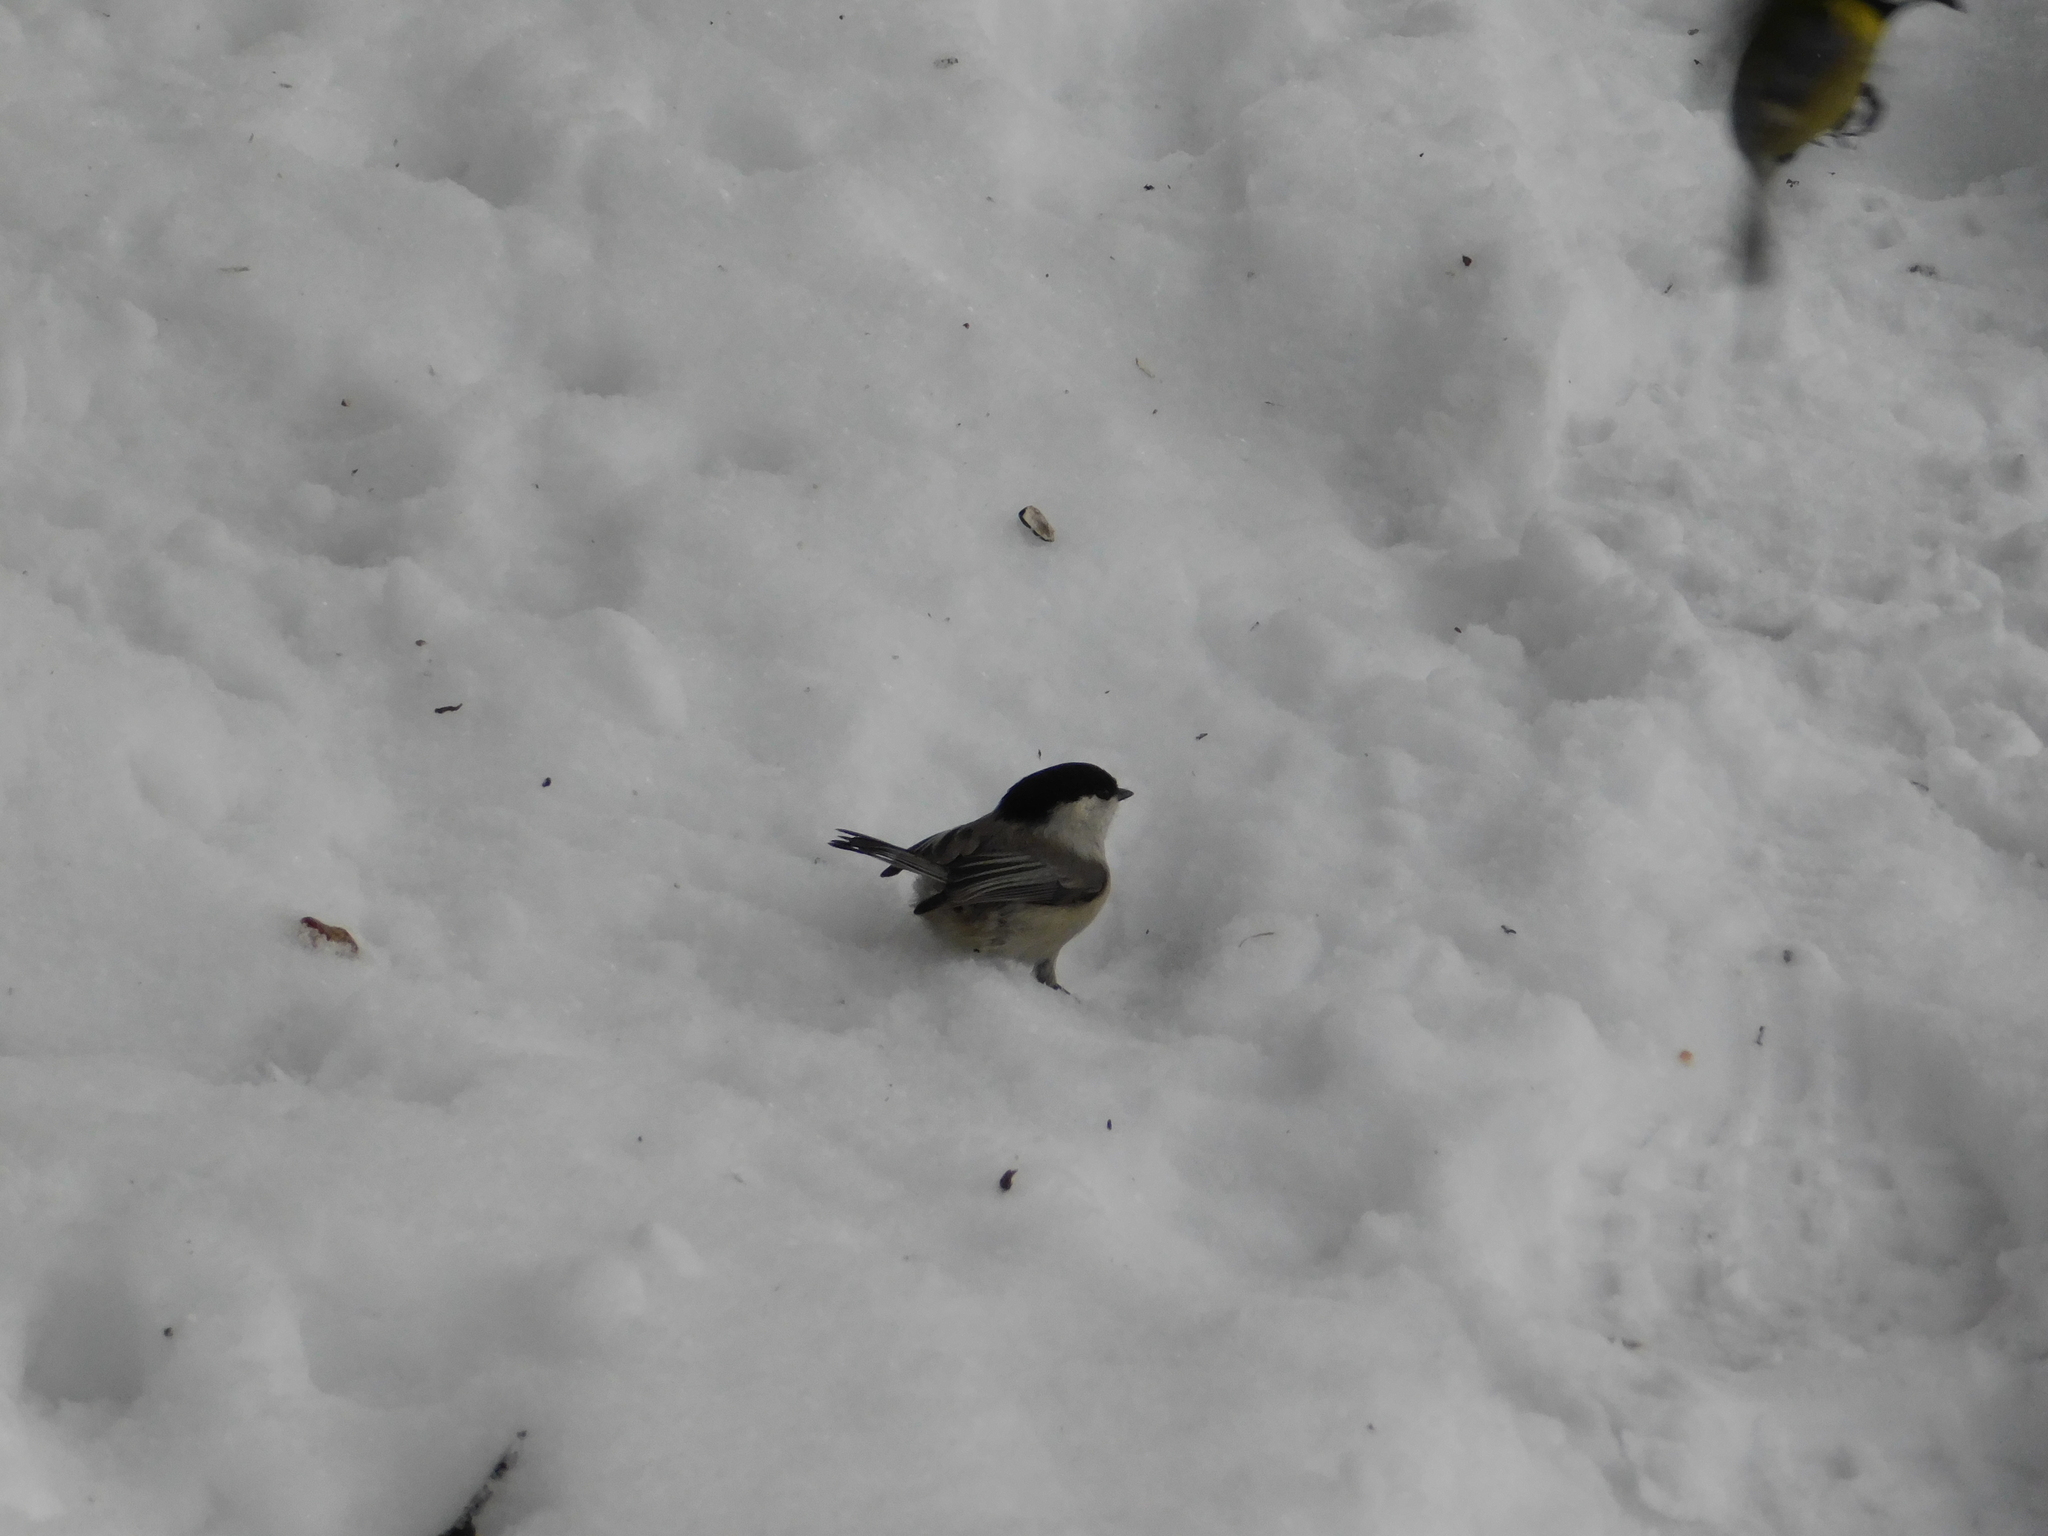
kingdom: Animalia
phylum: Chordata
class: Aves
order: Passeriformes
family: Paridae
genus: Poecile
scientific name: Poecile montanus
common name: Willow tit
